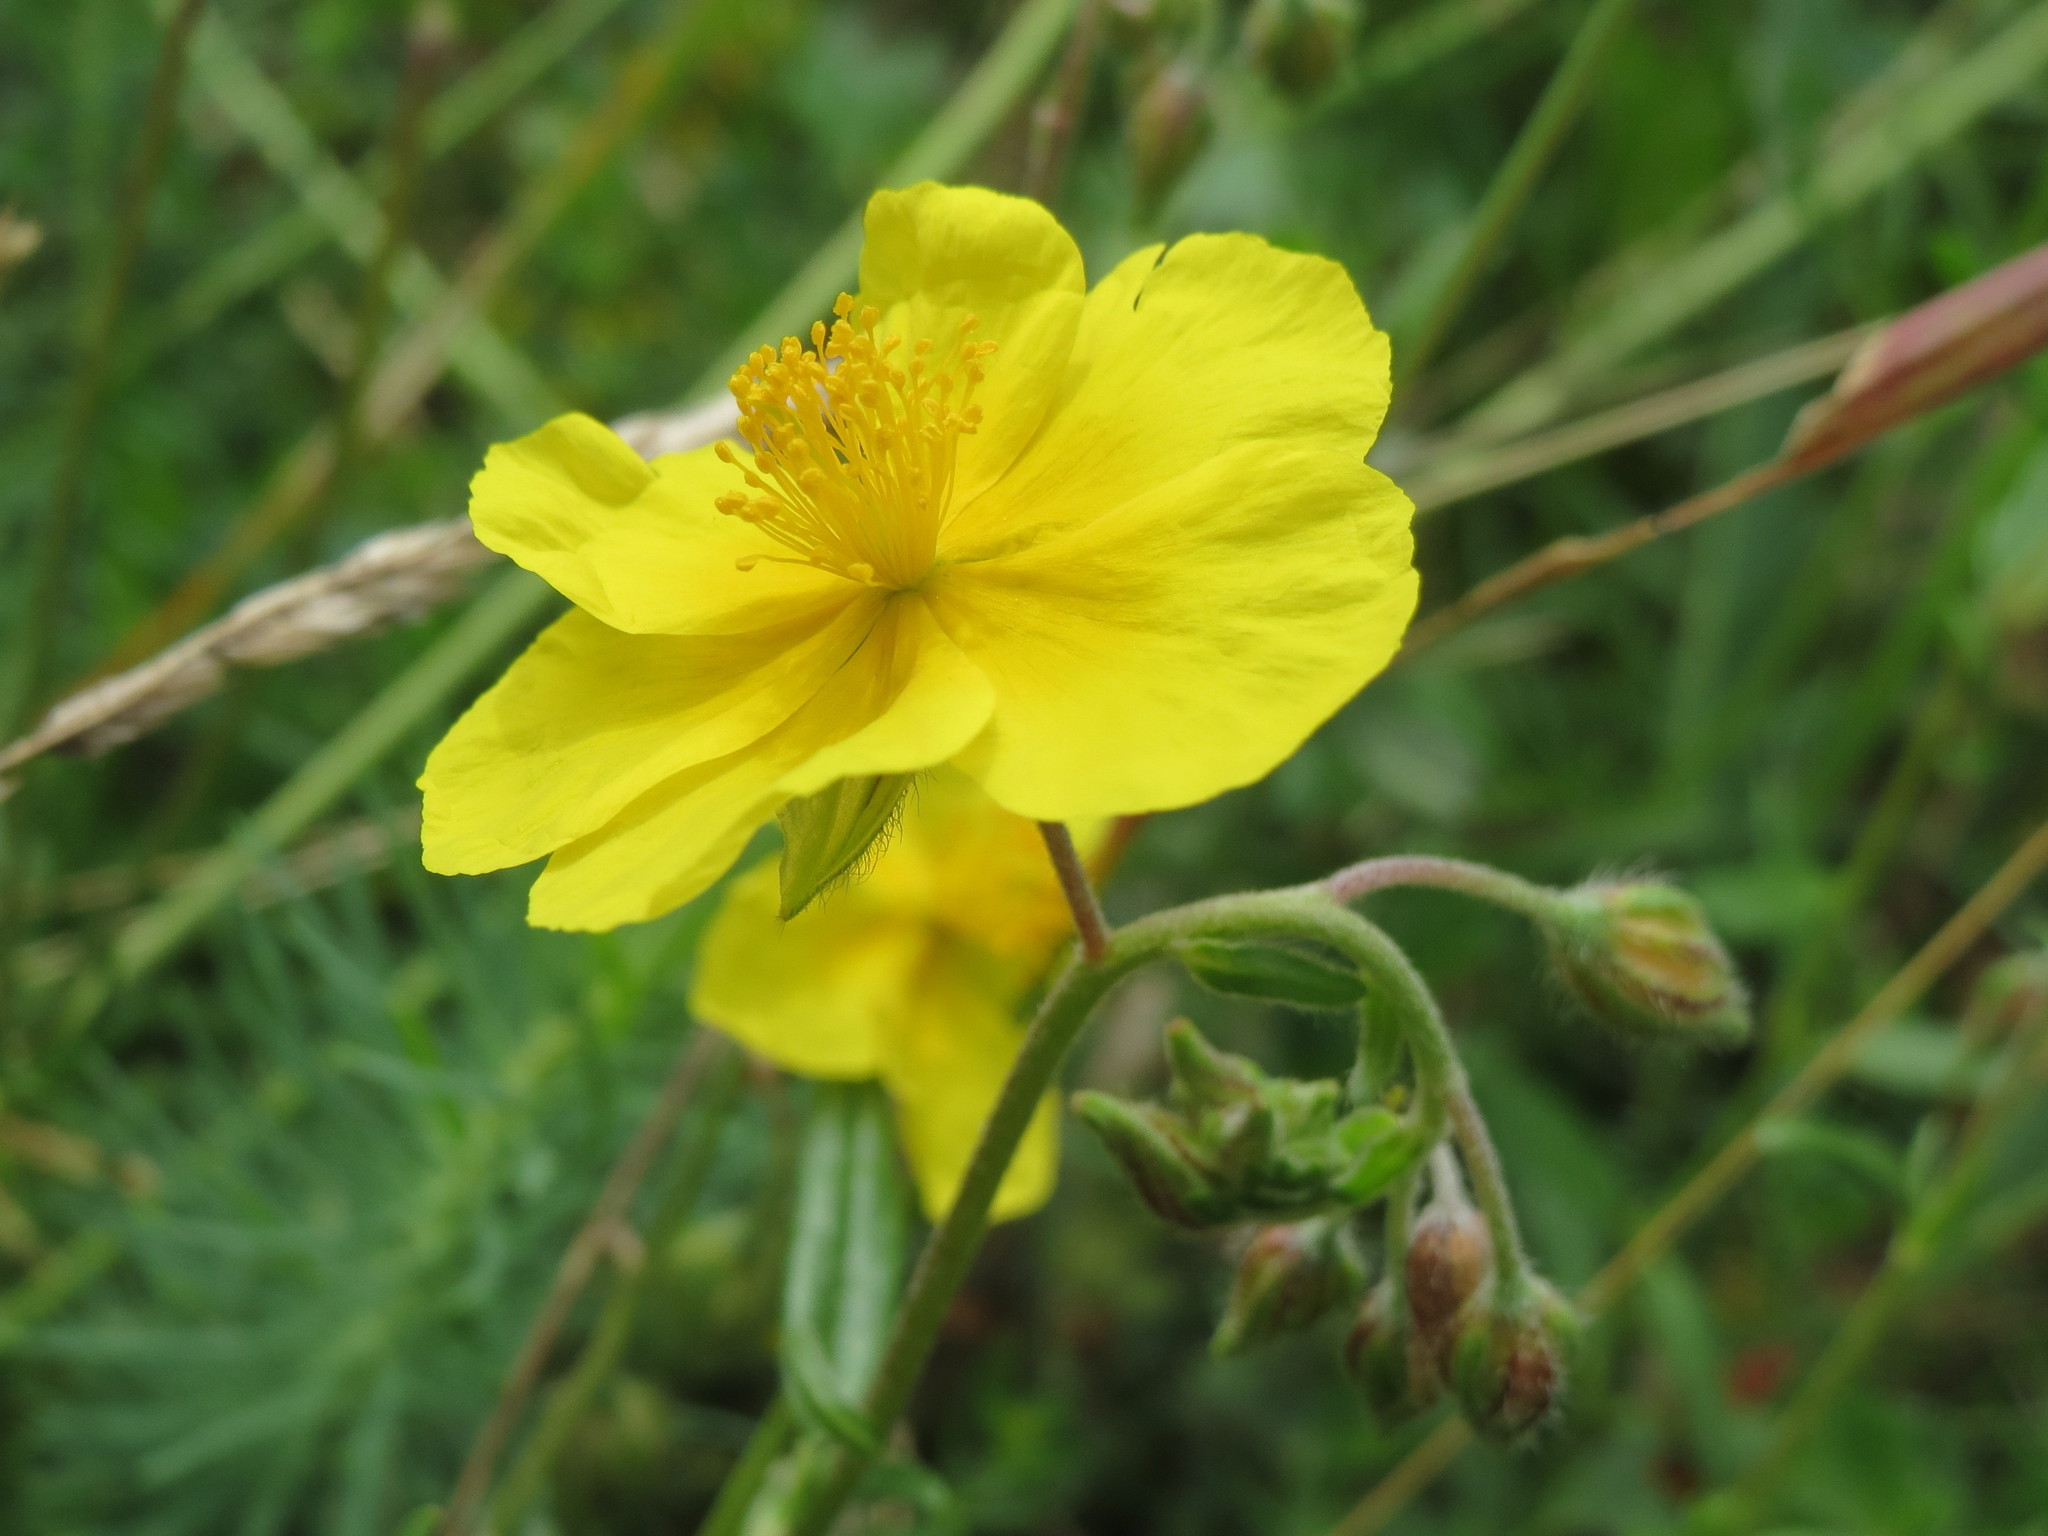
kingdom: Plantae
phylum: Tracheophyta
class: Magnoliopsida
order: Malvales
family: Cistaceae
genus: Helianthemum
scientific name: Helianthemum nummularium
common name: Common rock-rose
